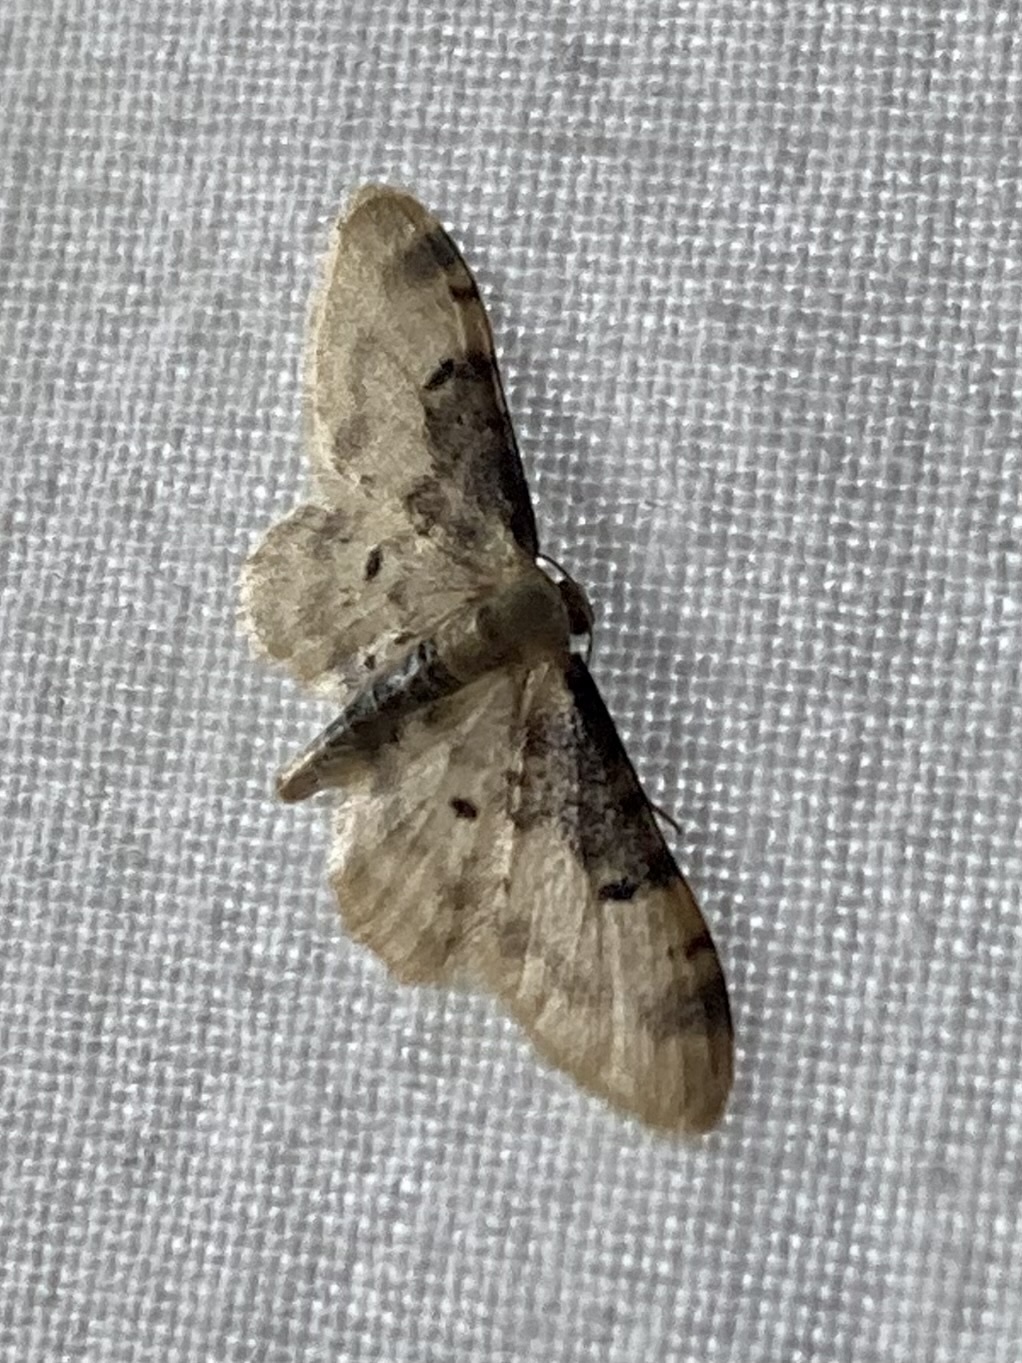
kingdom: Animalia
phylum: Arthropoda
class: Insecta
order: Lepidoptera
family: Geometridae
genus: Idaea
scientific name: Idaea filicata
